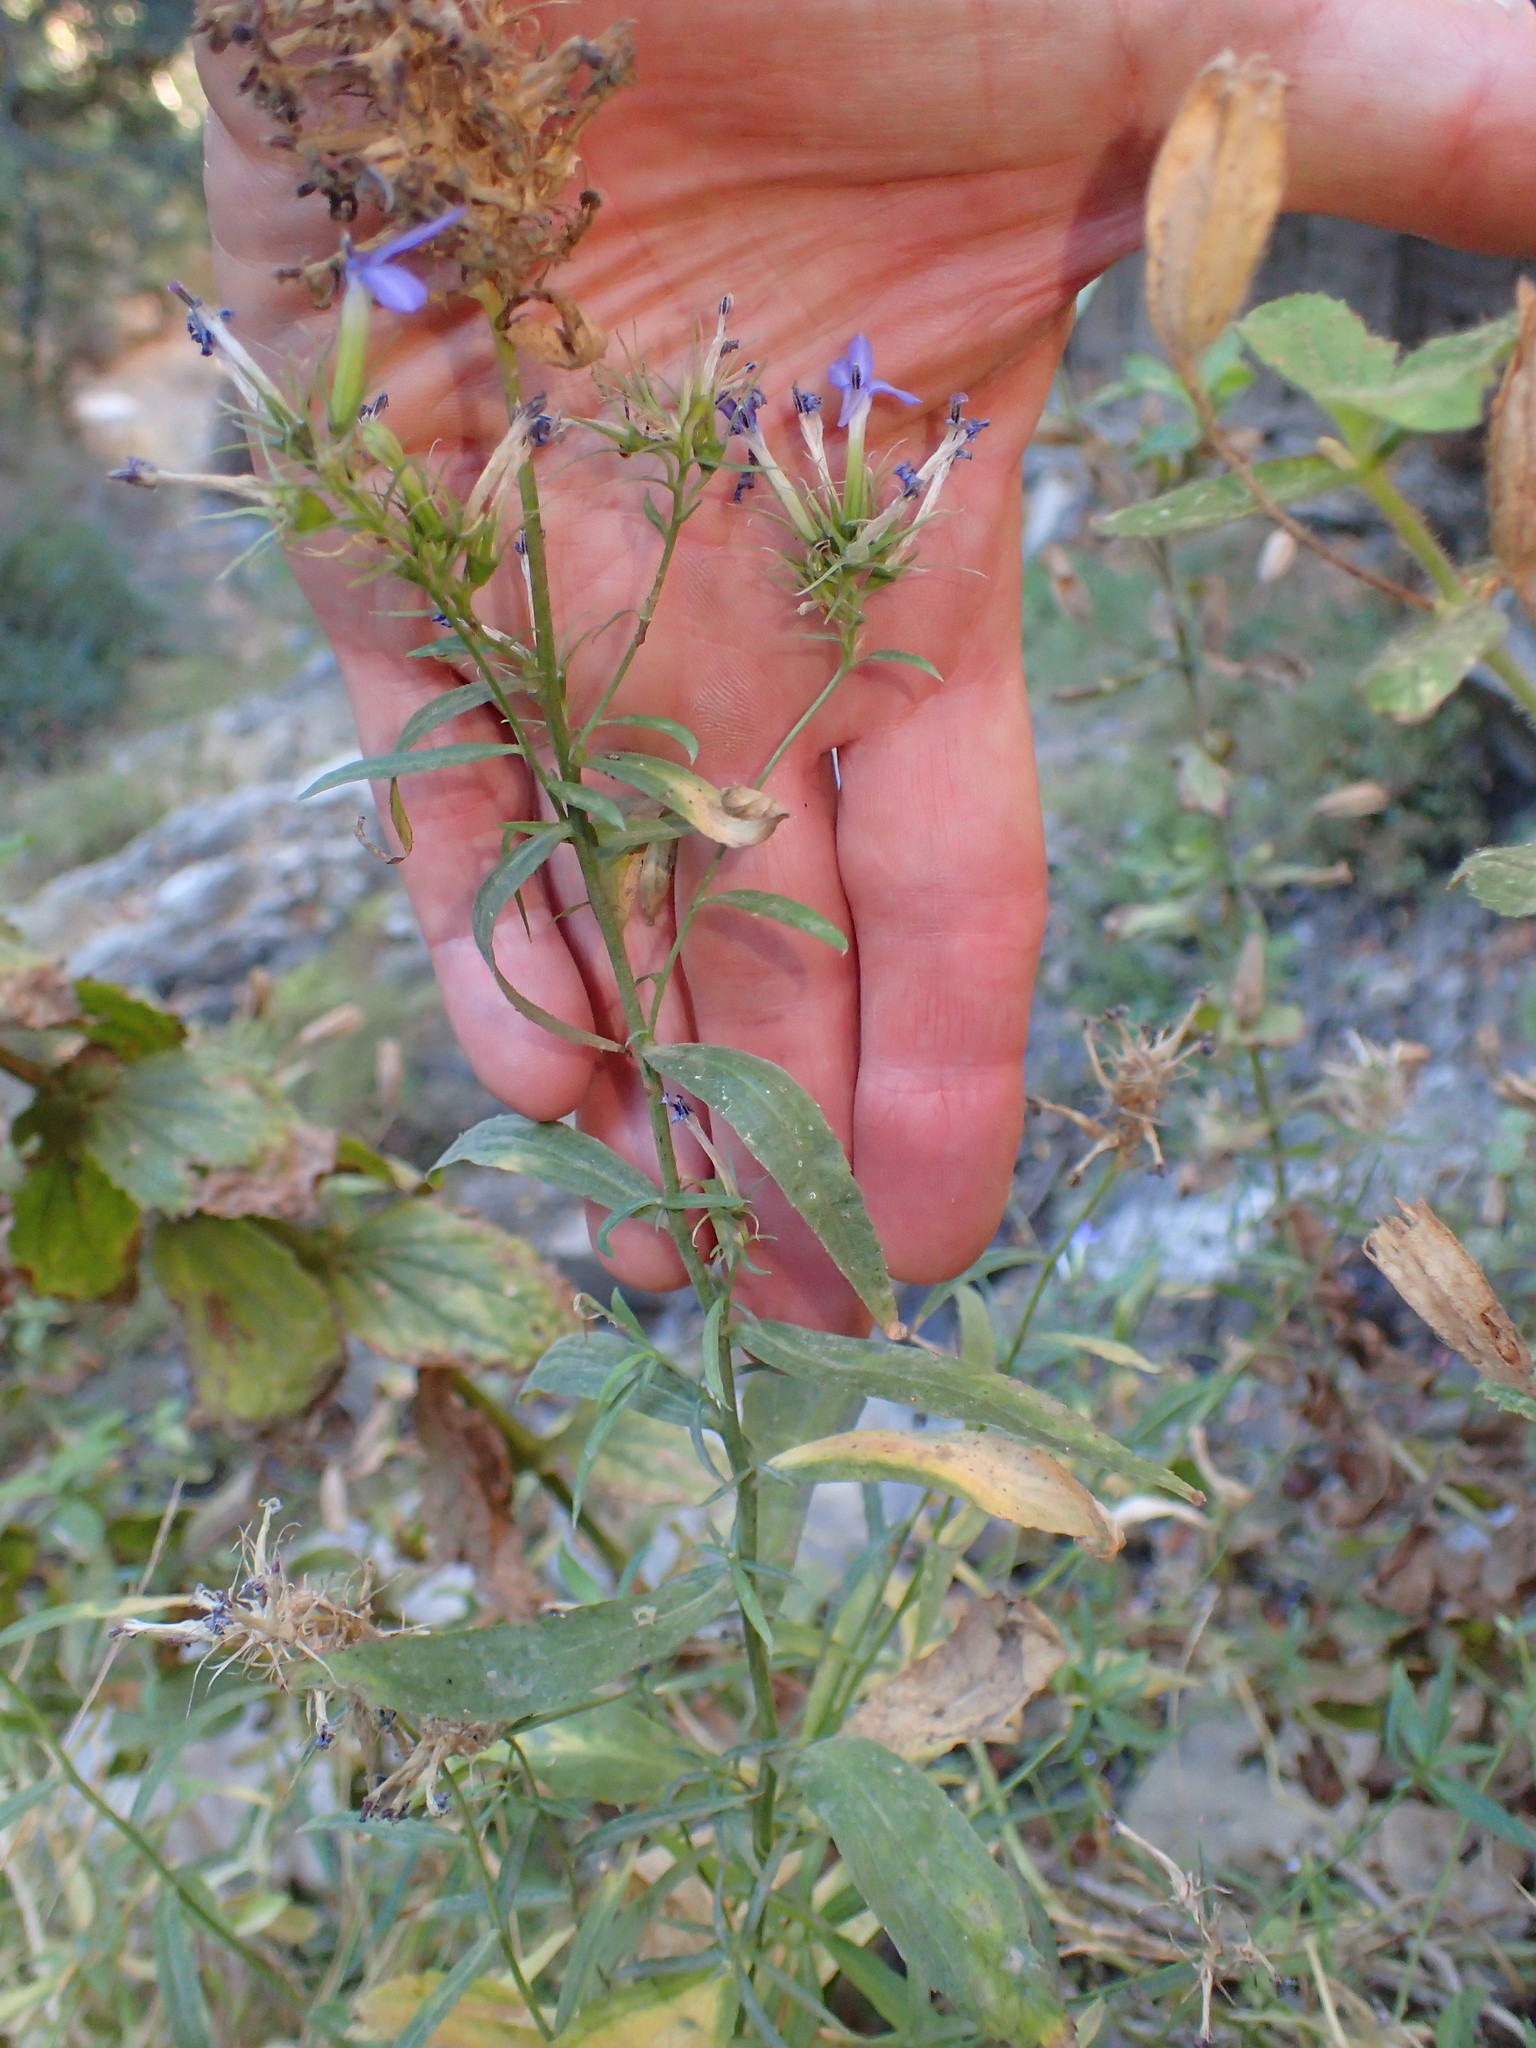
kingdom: Plantae
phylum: Tracheophyta
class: Magnoliopsida
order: Asterales
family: Campanulaceae
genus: Palmerella
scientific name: Palmerella debilis
